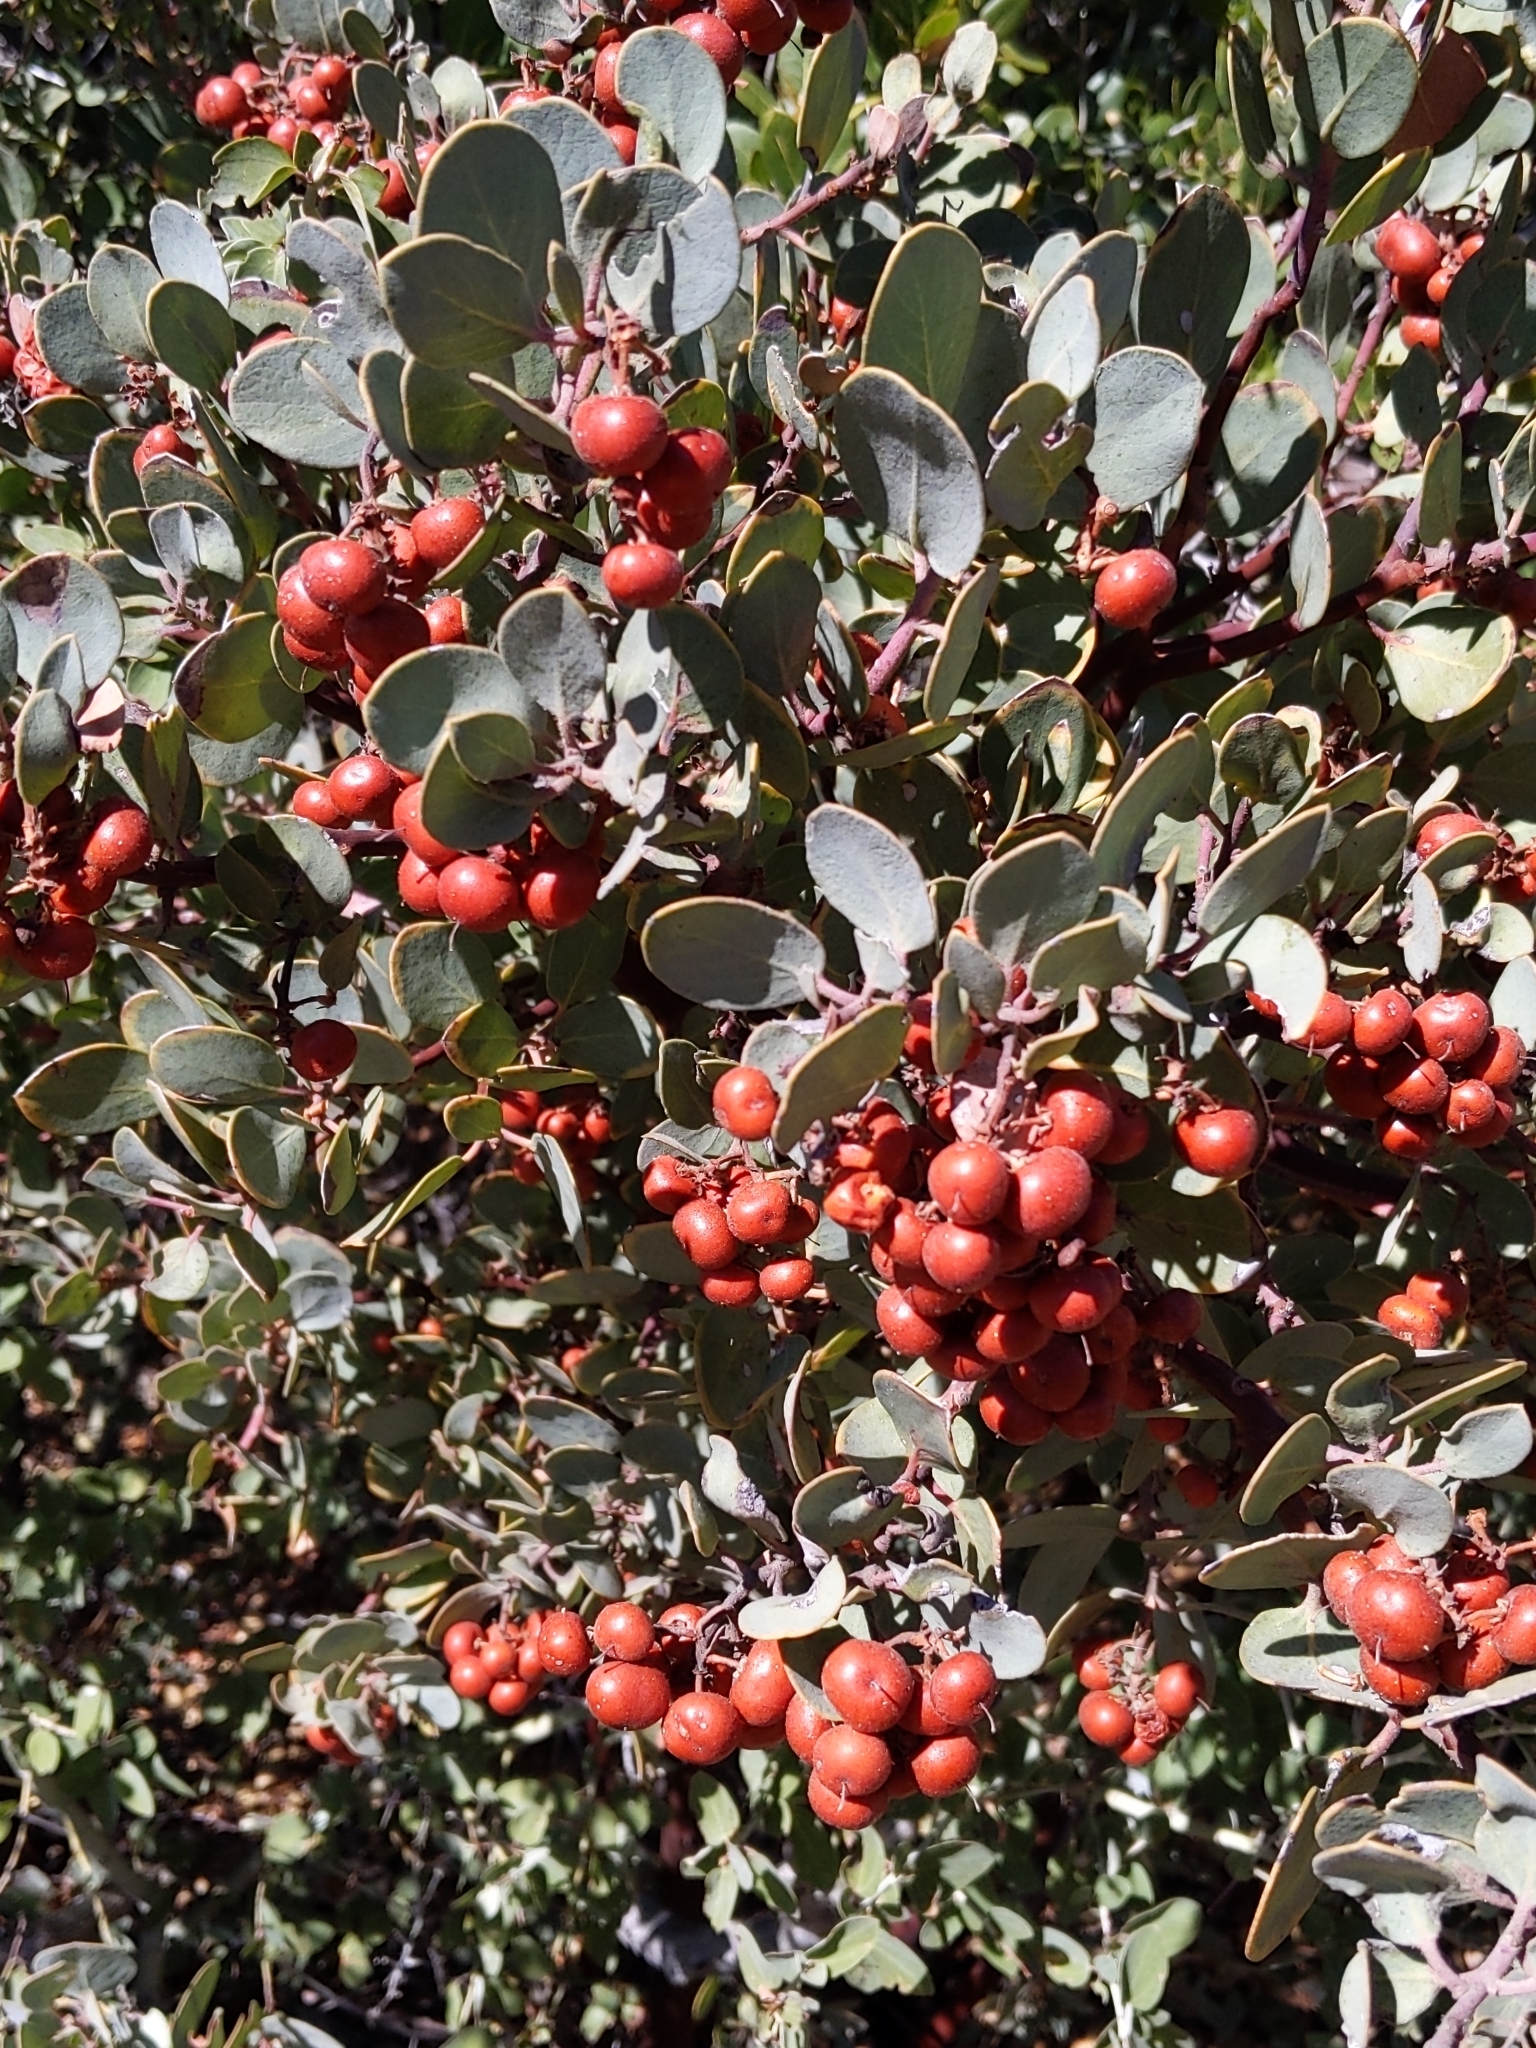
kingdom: Plantae
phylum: Tracheophyta
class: Magnoliopsida
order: Ericales
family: Ericaceae
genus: Arctostaphylos
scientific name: Arctostaphylos glauca
